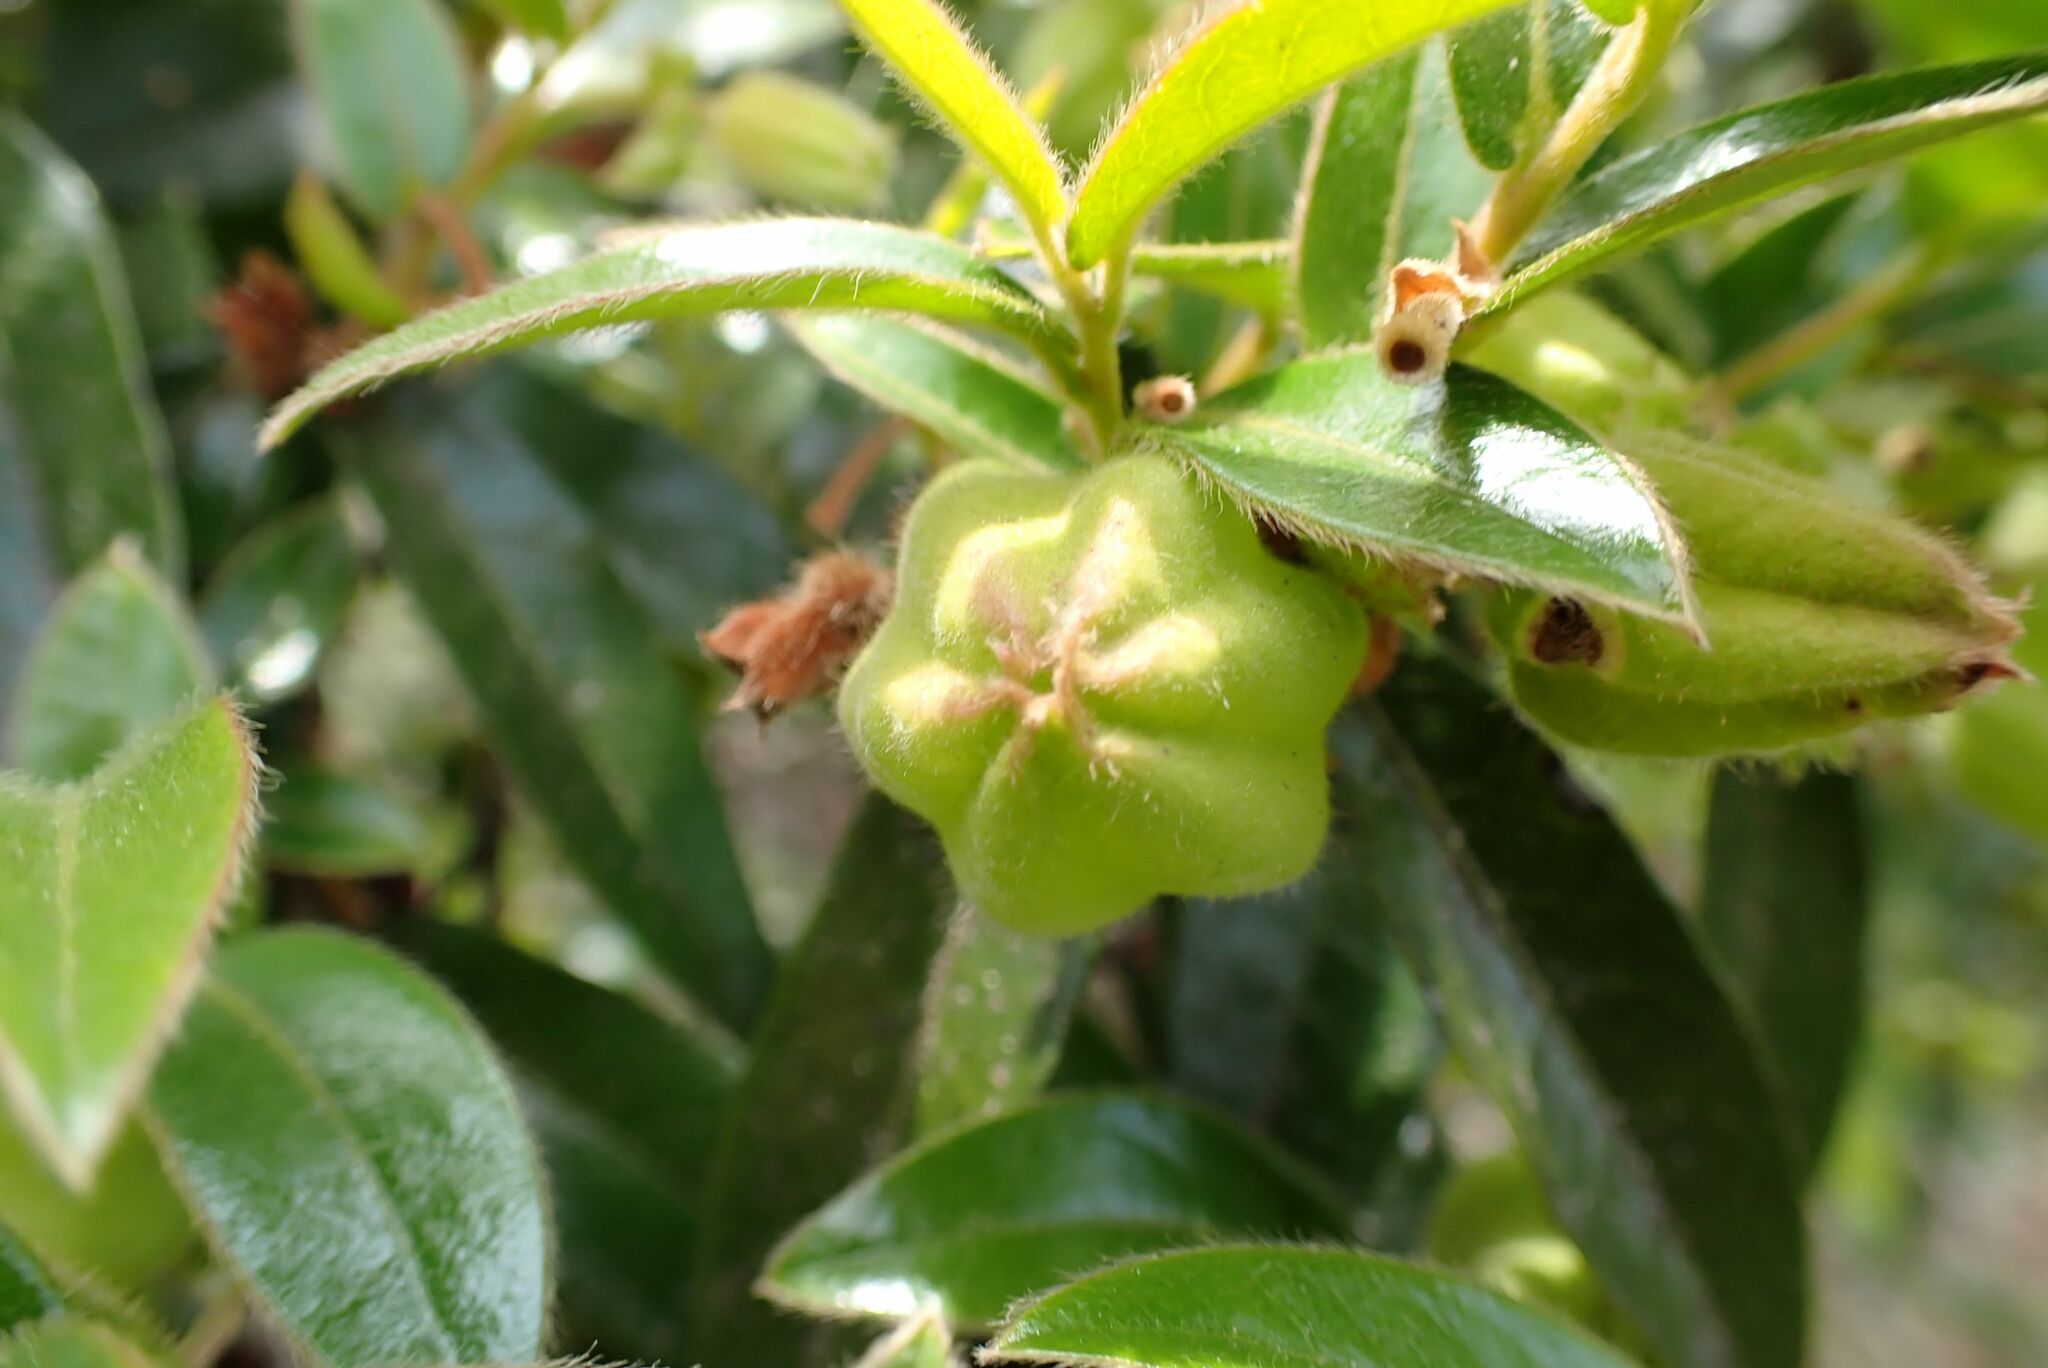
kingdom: Plantae
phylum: Tracheophyta
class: Magnoliopsida
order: Ericales
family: Ebenaceae
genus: Diospyros
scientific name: Diospyros whyteana
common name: Bladder-nut
